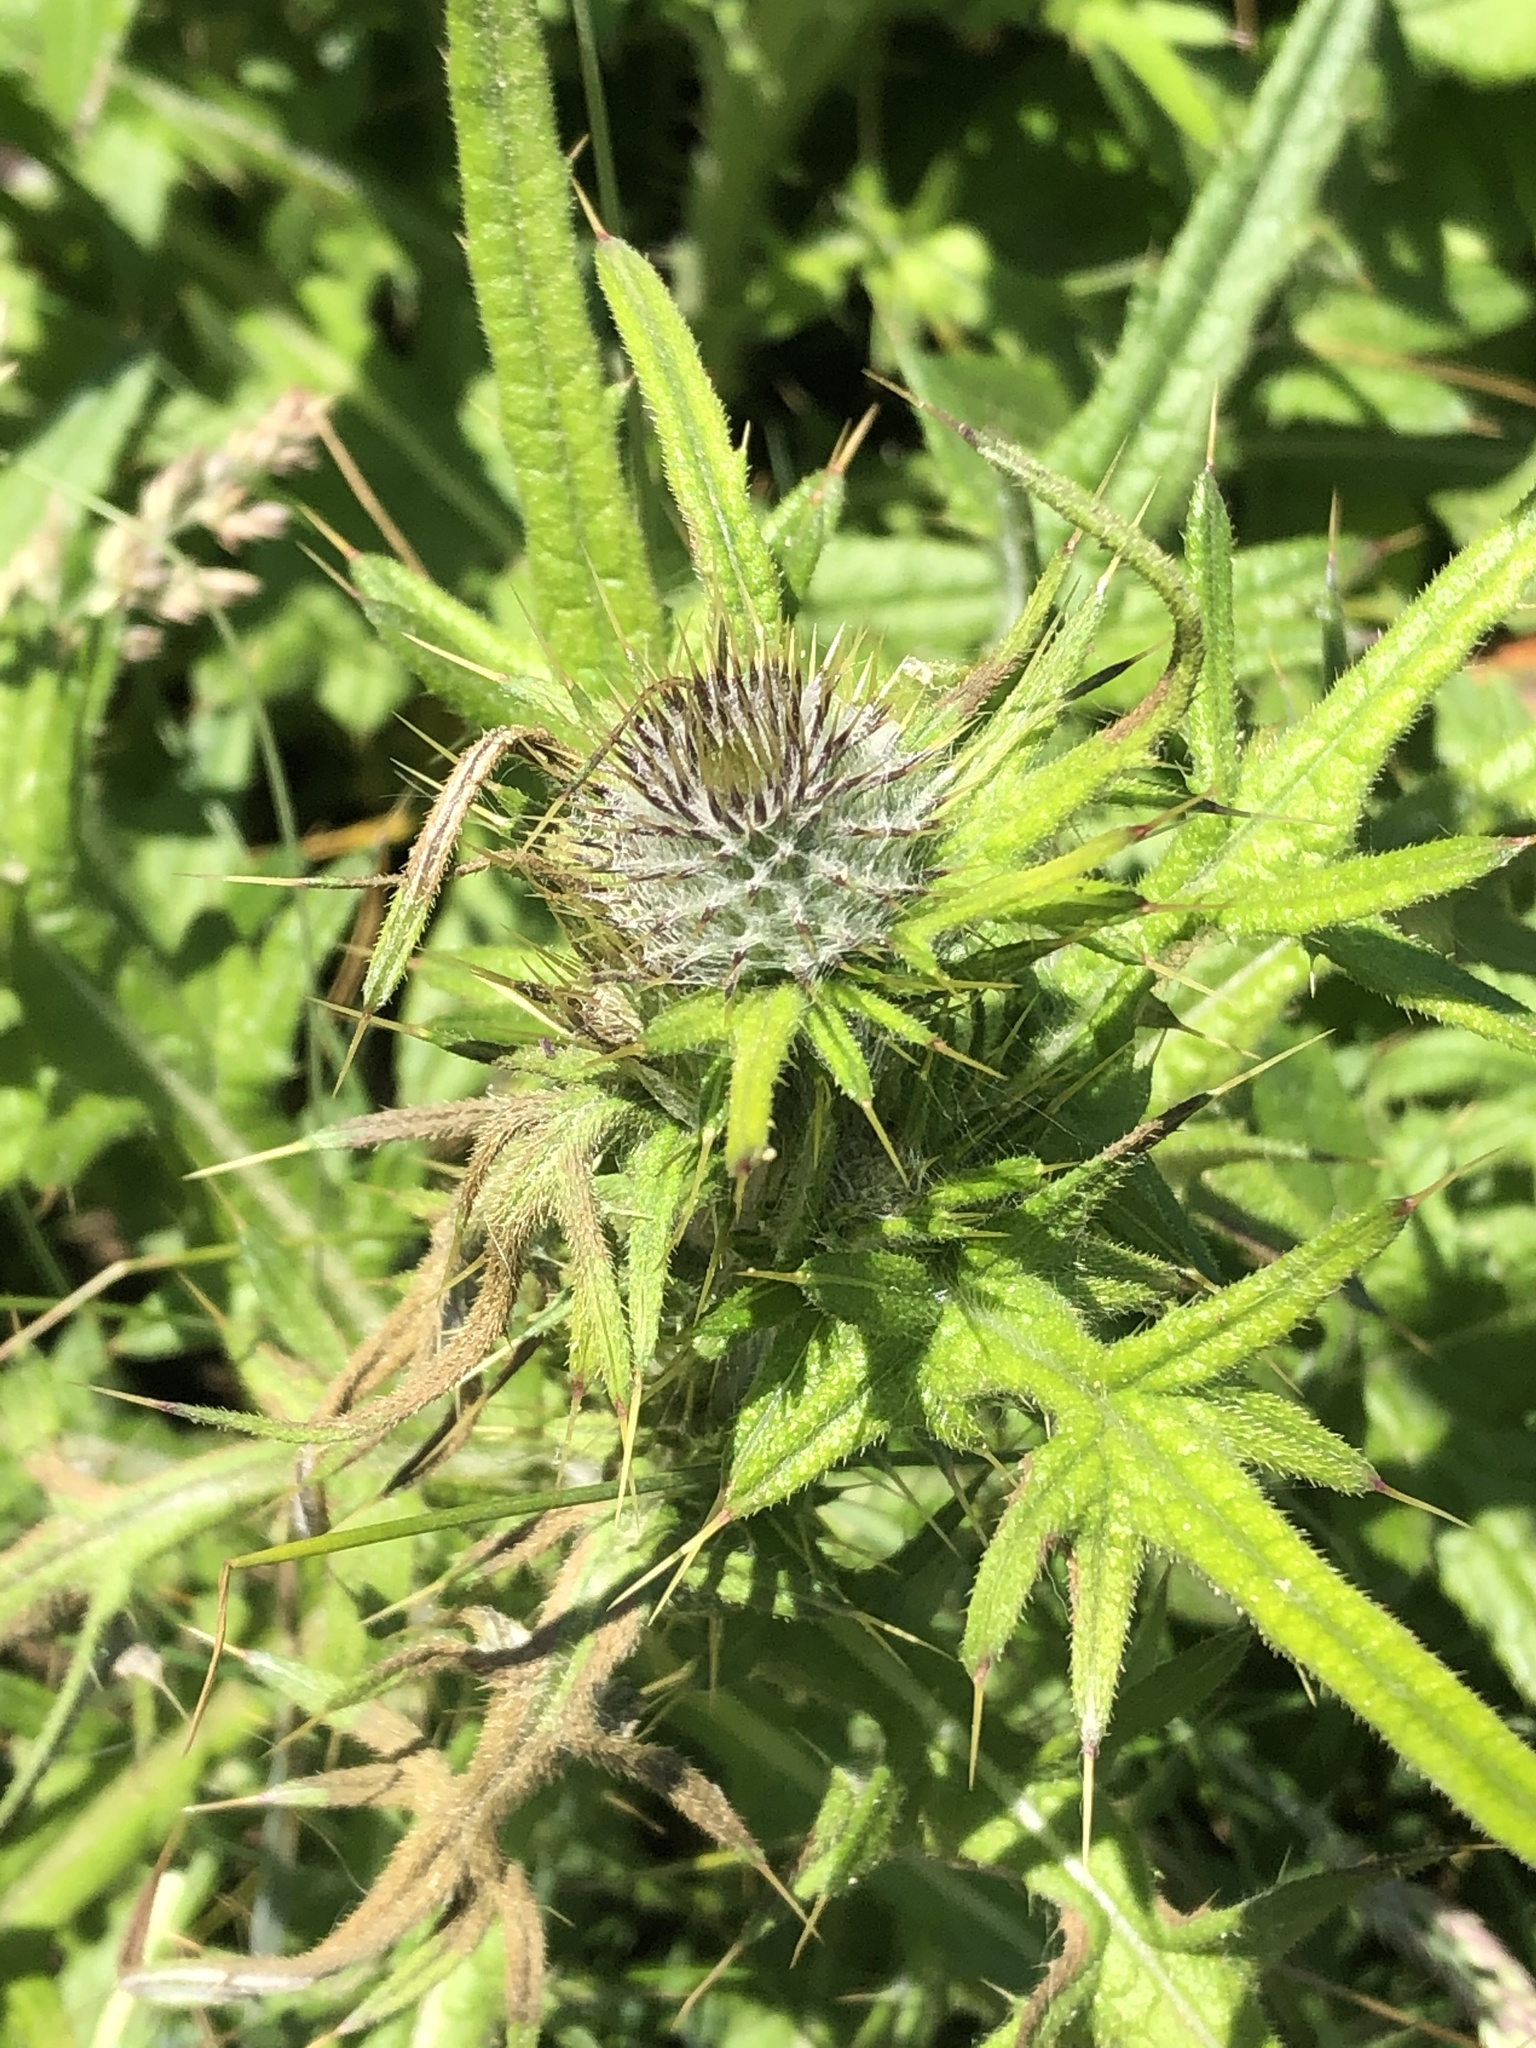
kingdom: Plantae
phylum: Tracheophyta
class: Magnoliopsida
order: Asterales
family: Asteraceae
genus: Cirsium
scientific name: Cirsium vulgare
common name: Bull thistle
